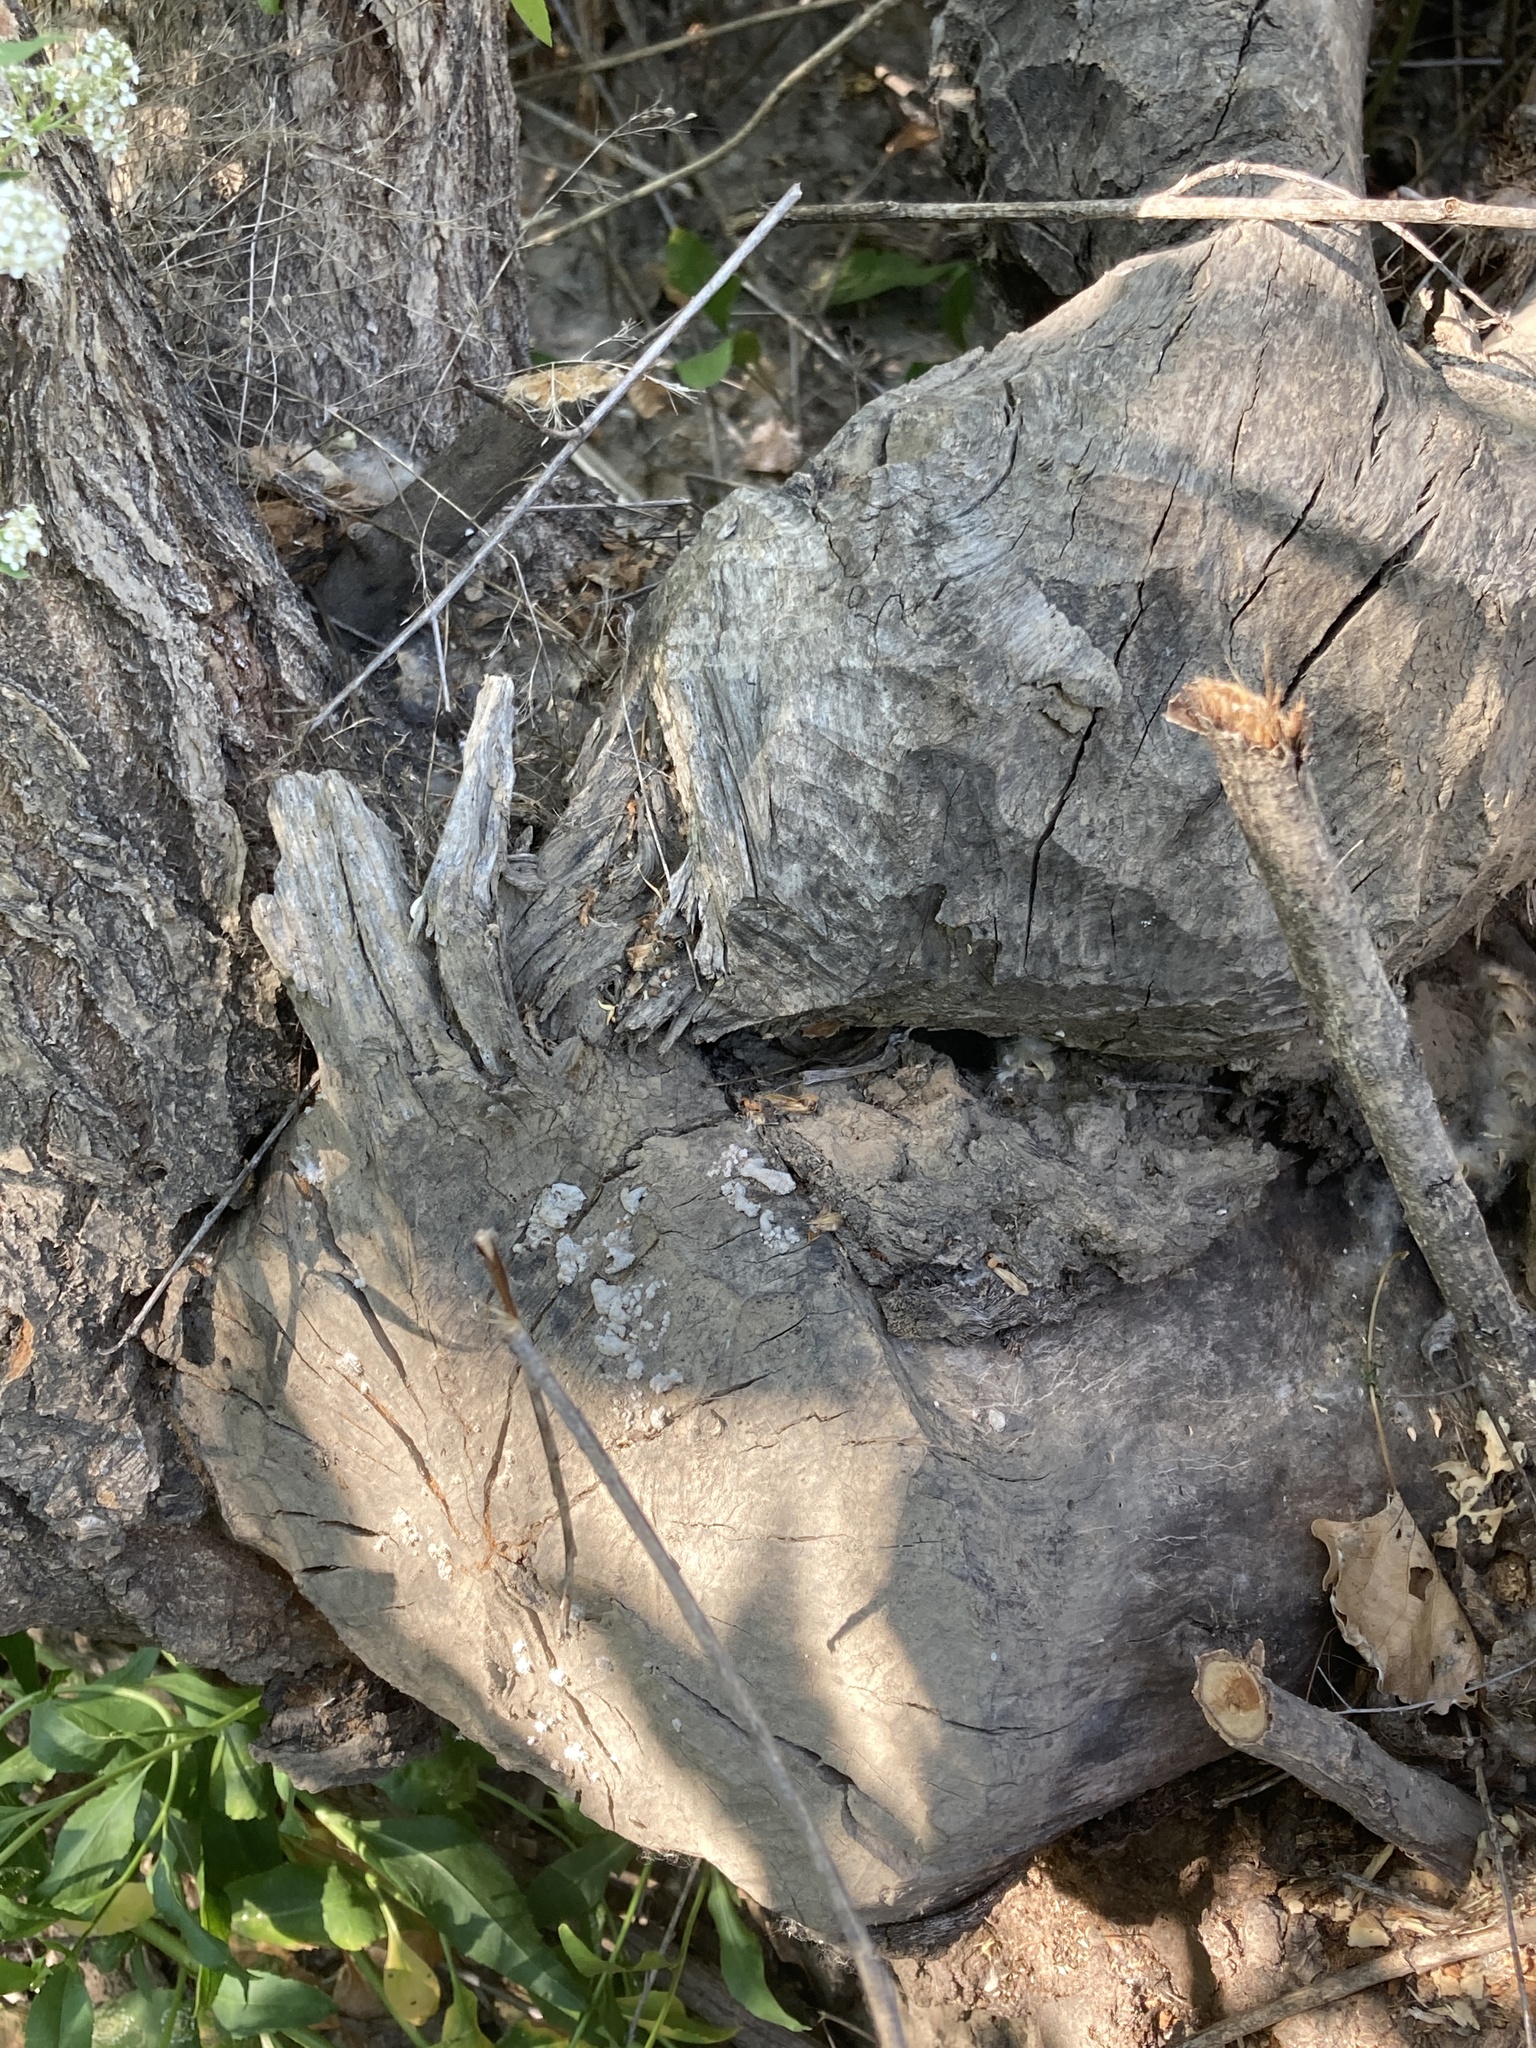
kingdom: Animalia
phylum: Chordata
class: Mammalia
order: Rodentia
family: Castoridae
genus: Castor
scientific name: Castor canadensis
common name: American beaver
